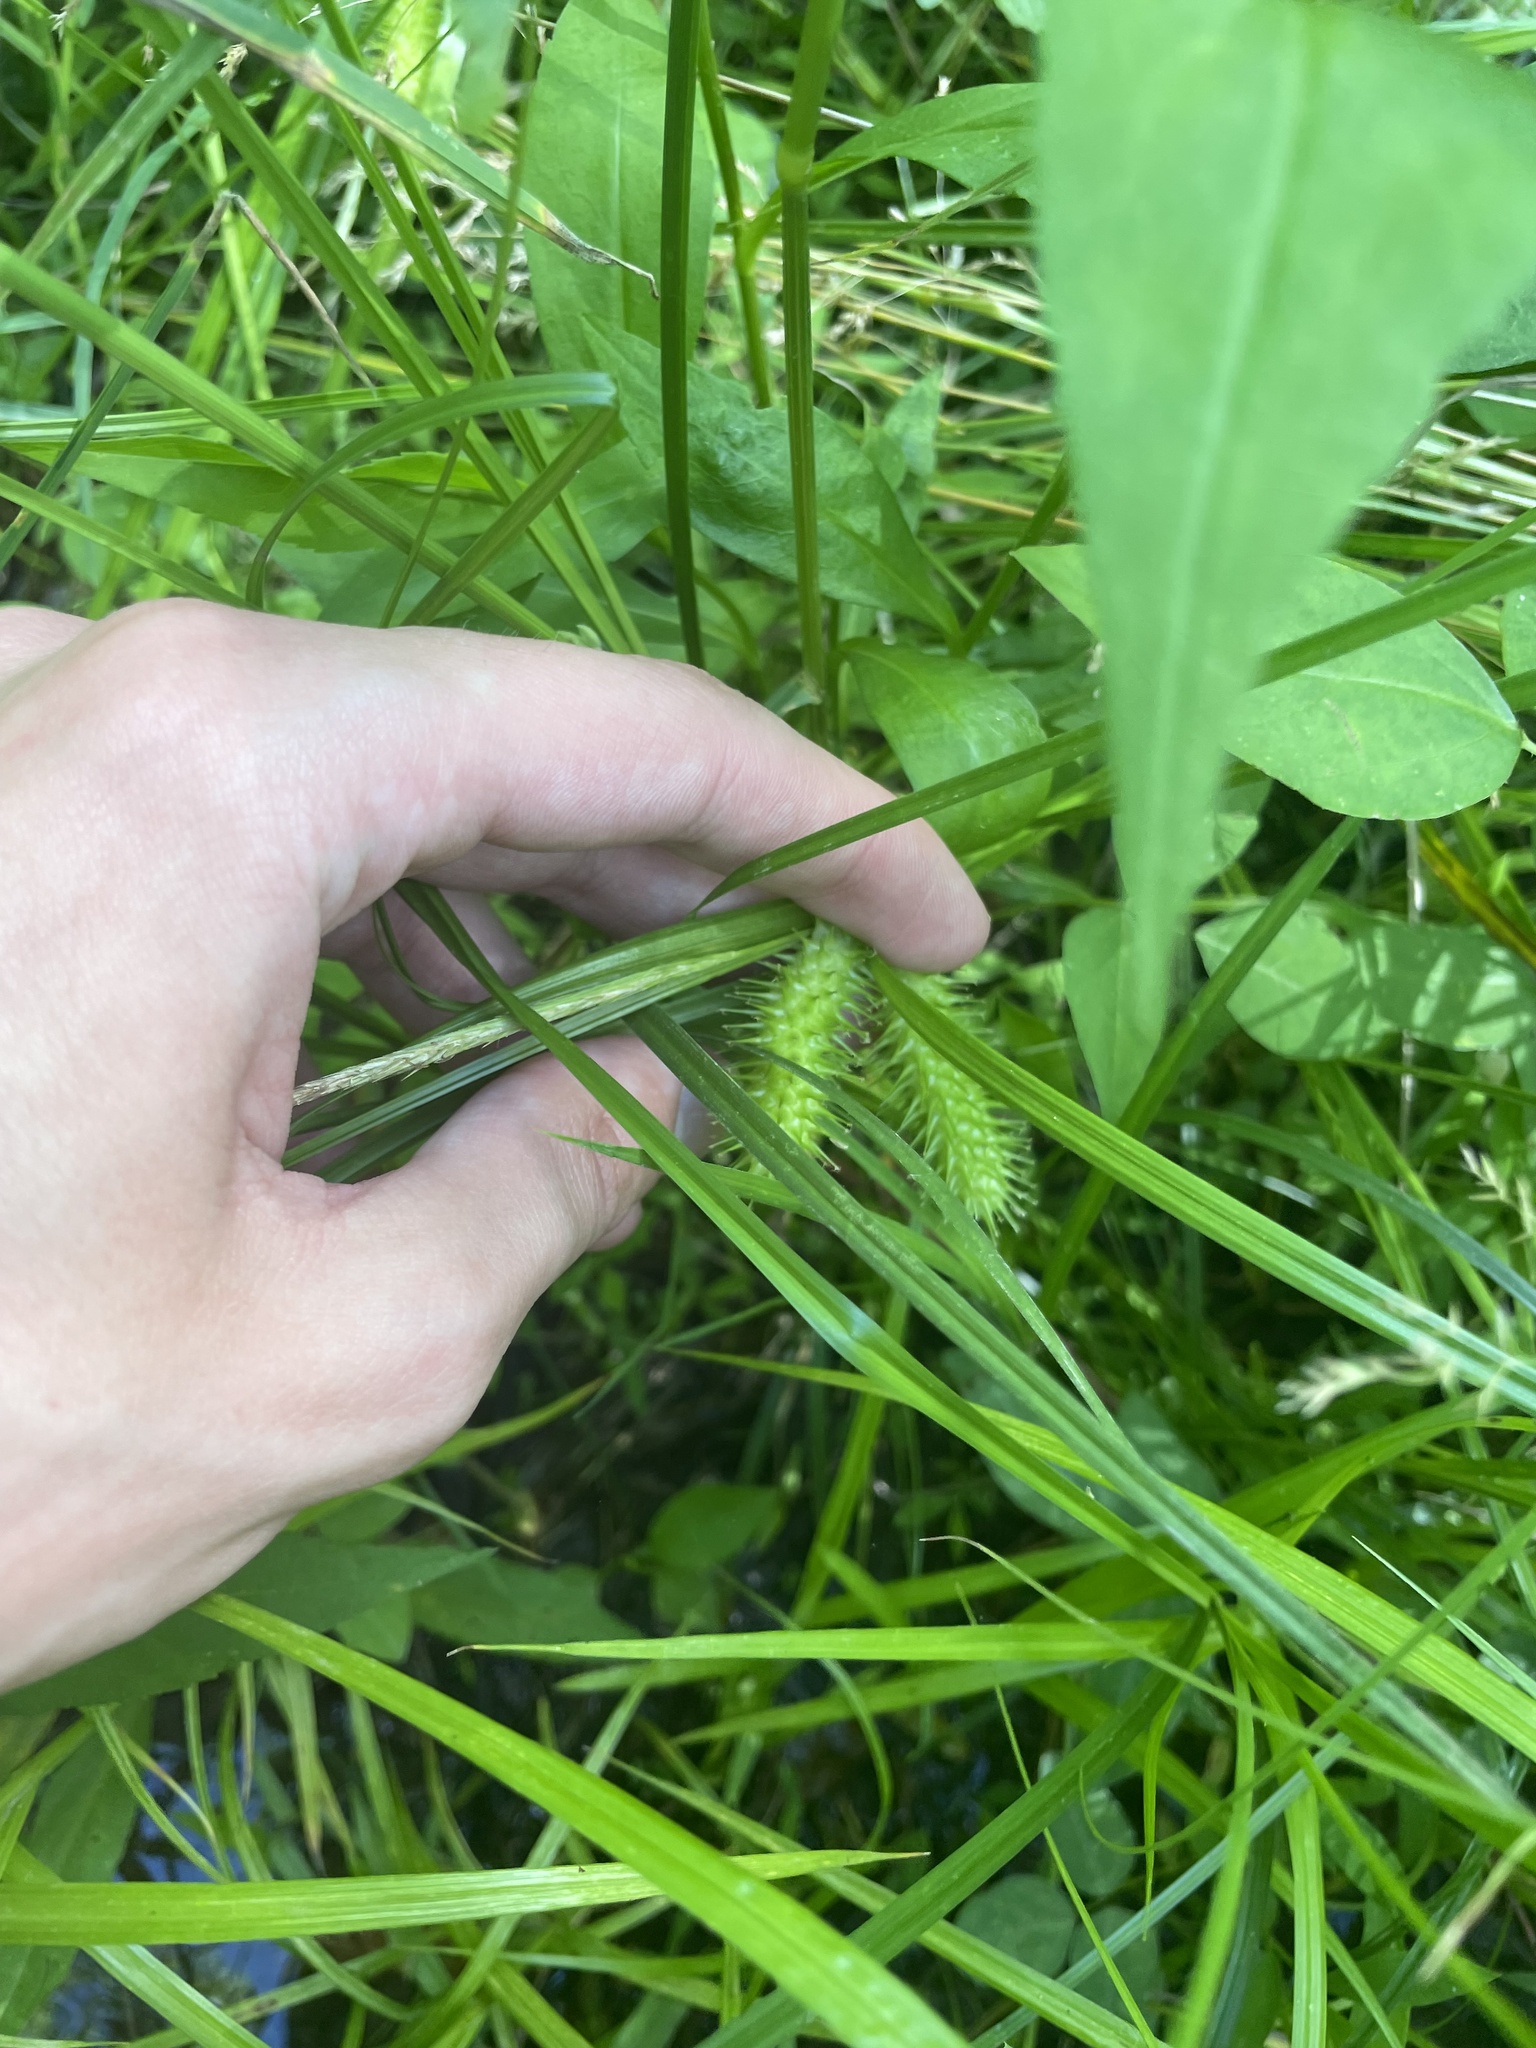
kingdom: Plantae
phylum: Tracheophyta
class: Liliopsida
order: Poales
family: Cyperaceae
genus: Carex
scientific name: Carex lurida
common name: Sallow sedge
